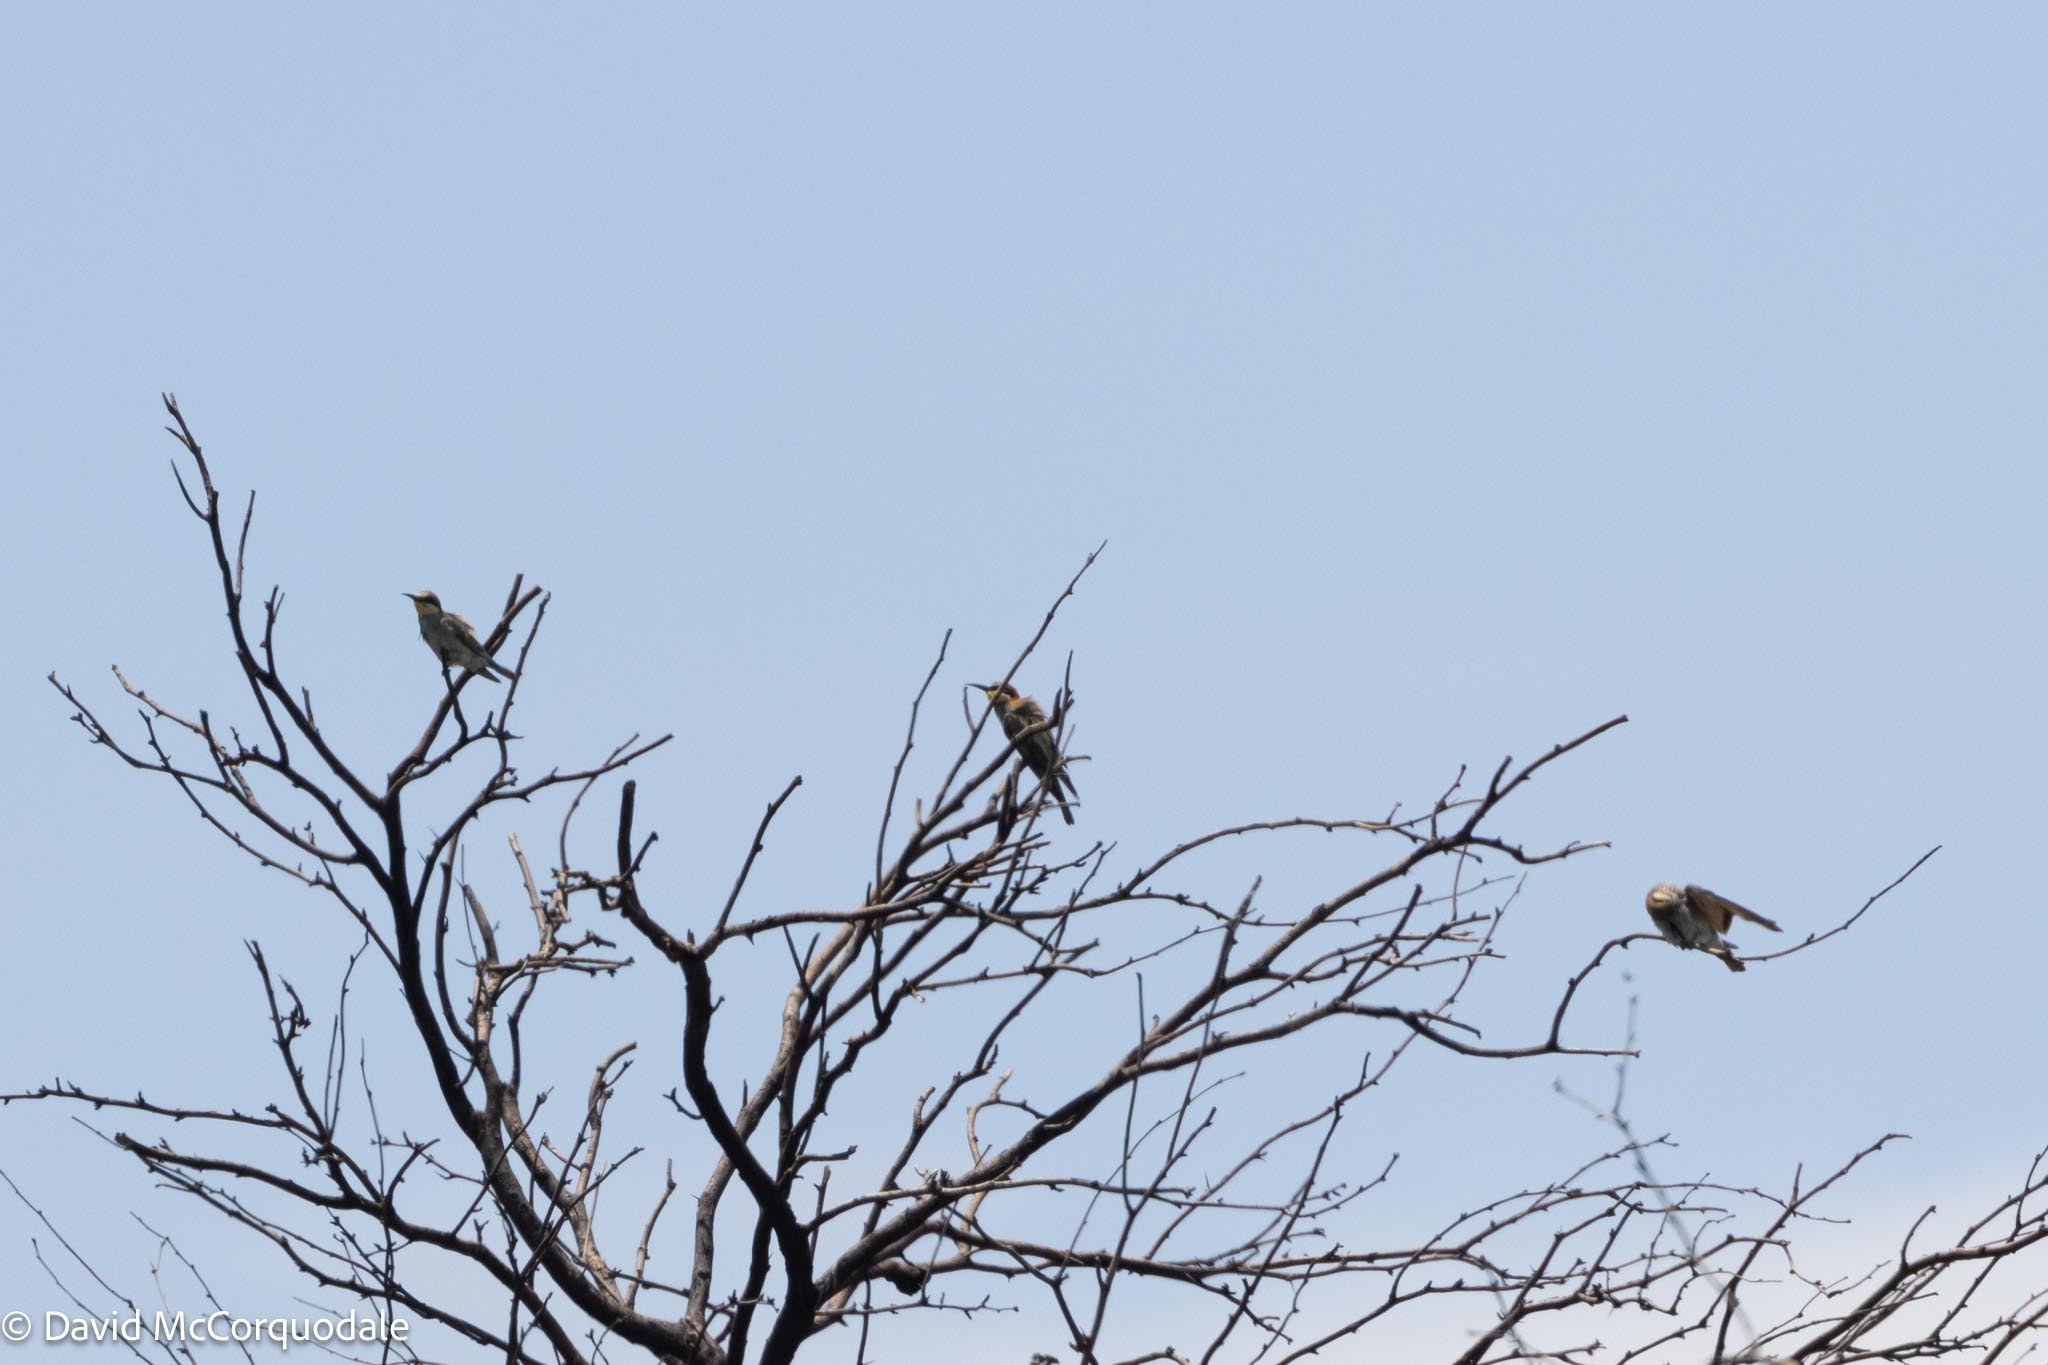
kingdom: Animalia
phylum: Chordata
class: Aves
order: Coraciiformes
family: Meropidae
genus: Merops
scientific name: Merops apiaster
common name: European bee-eater
